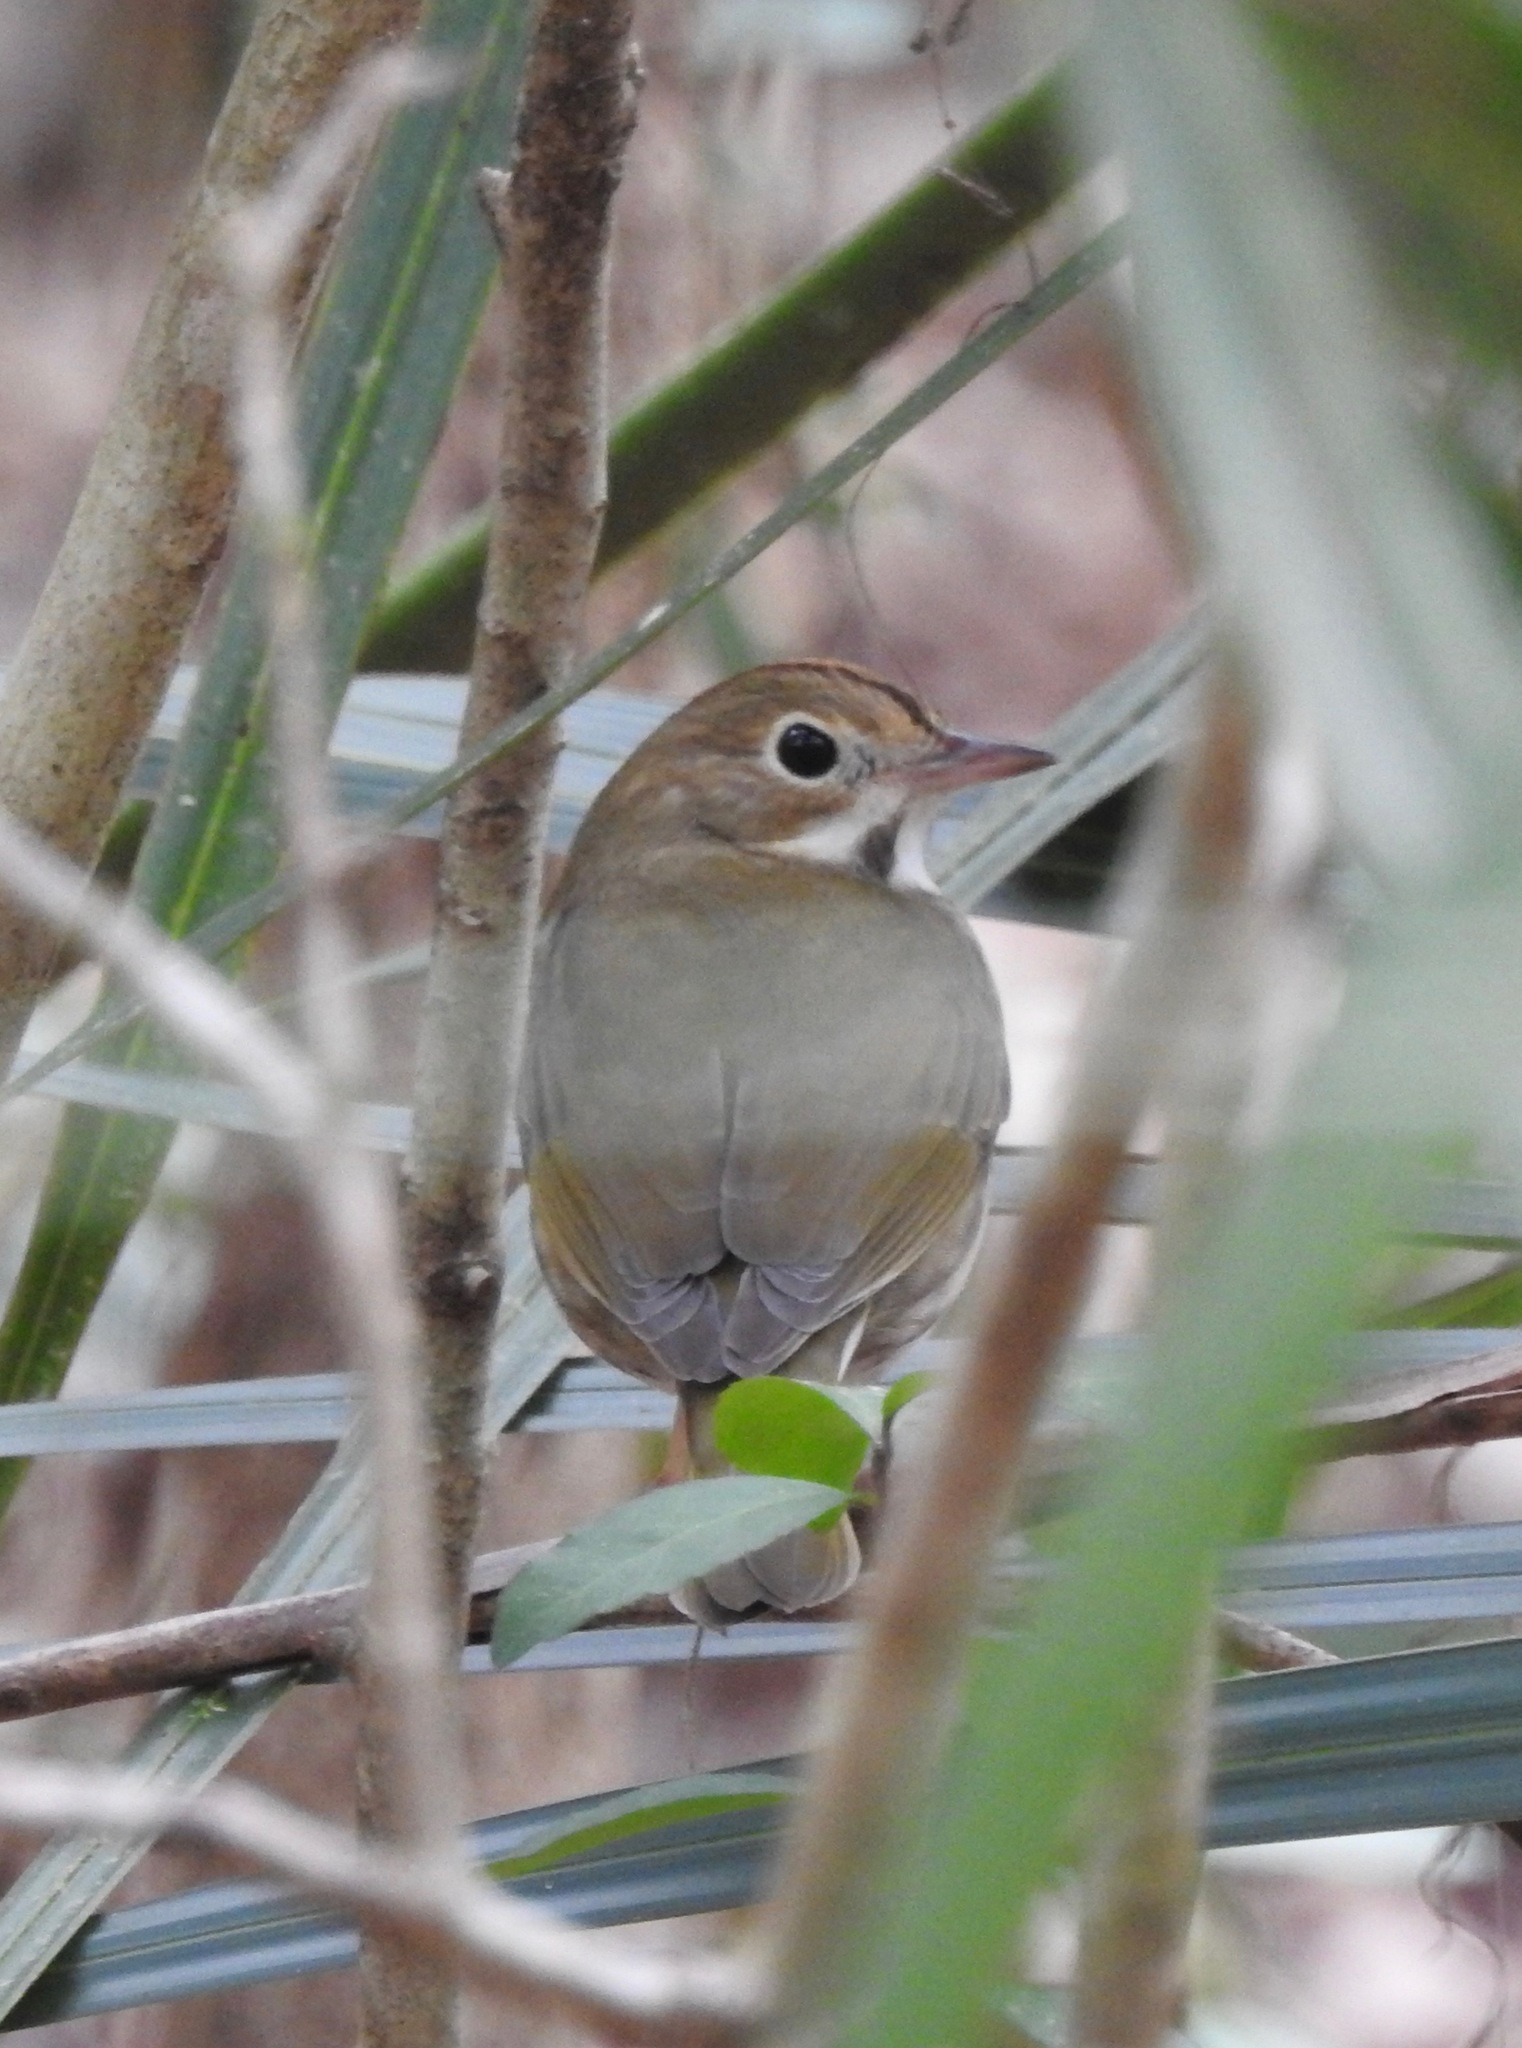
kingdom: Animalia
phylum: Chordata
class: Aves
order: Passeriformes
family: Parulidae
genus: Seiurus
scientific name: Seiurus aurocapilla
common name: Ovenbird
